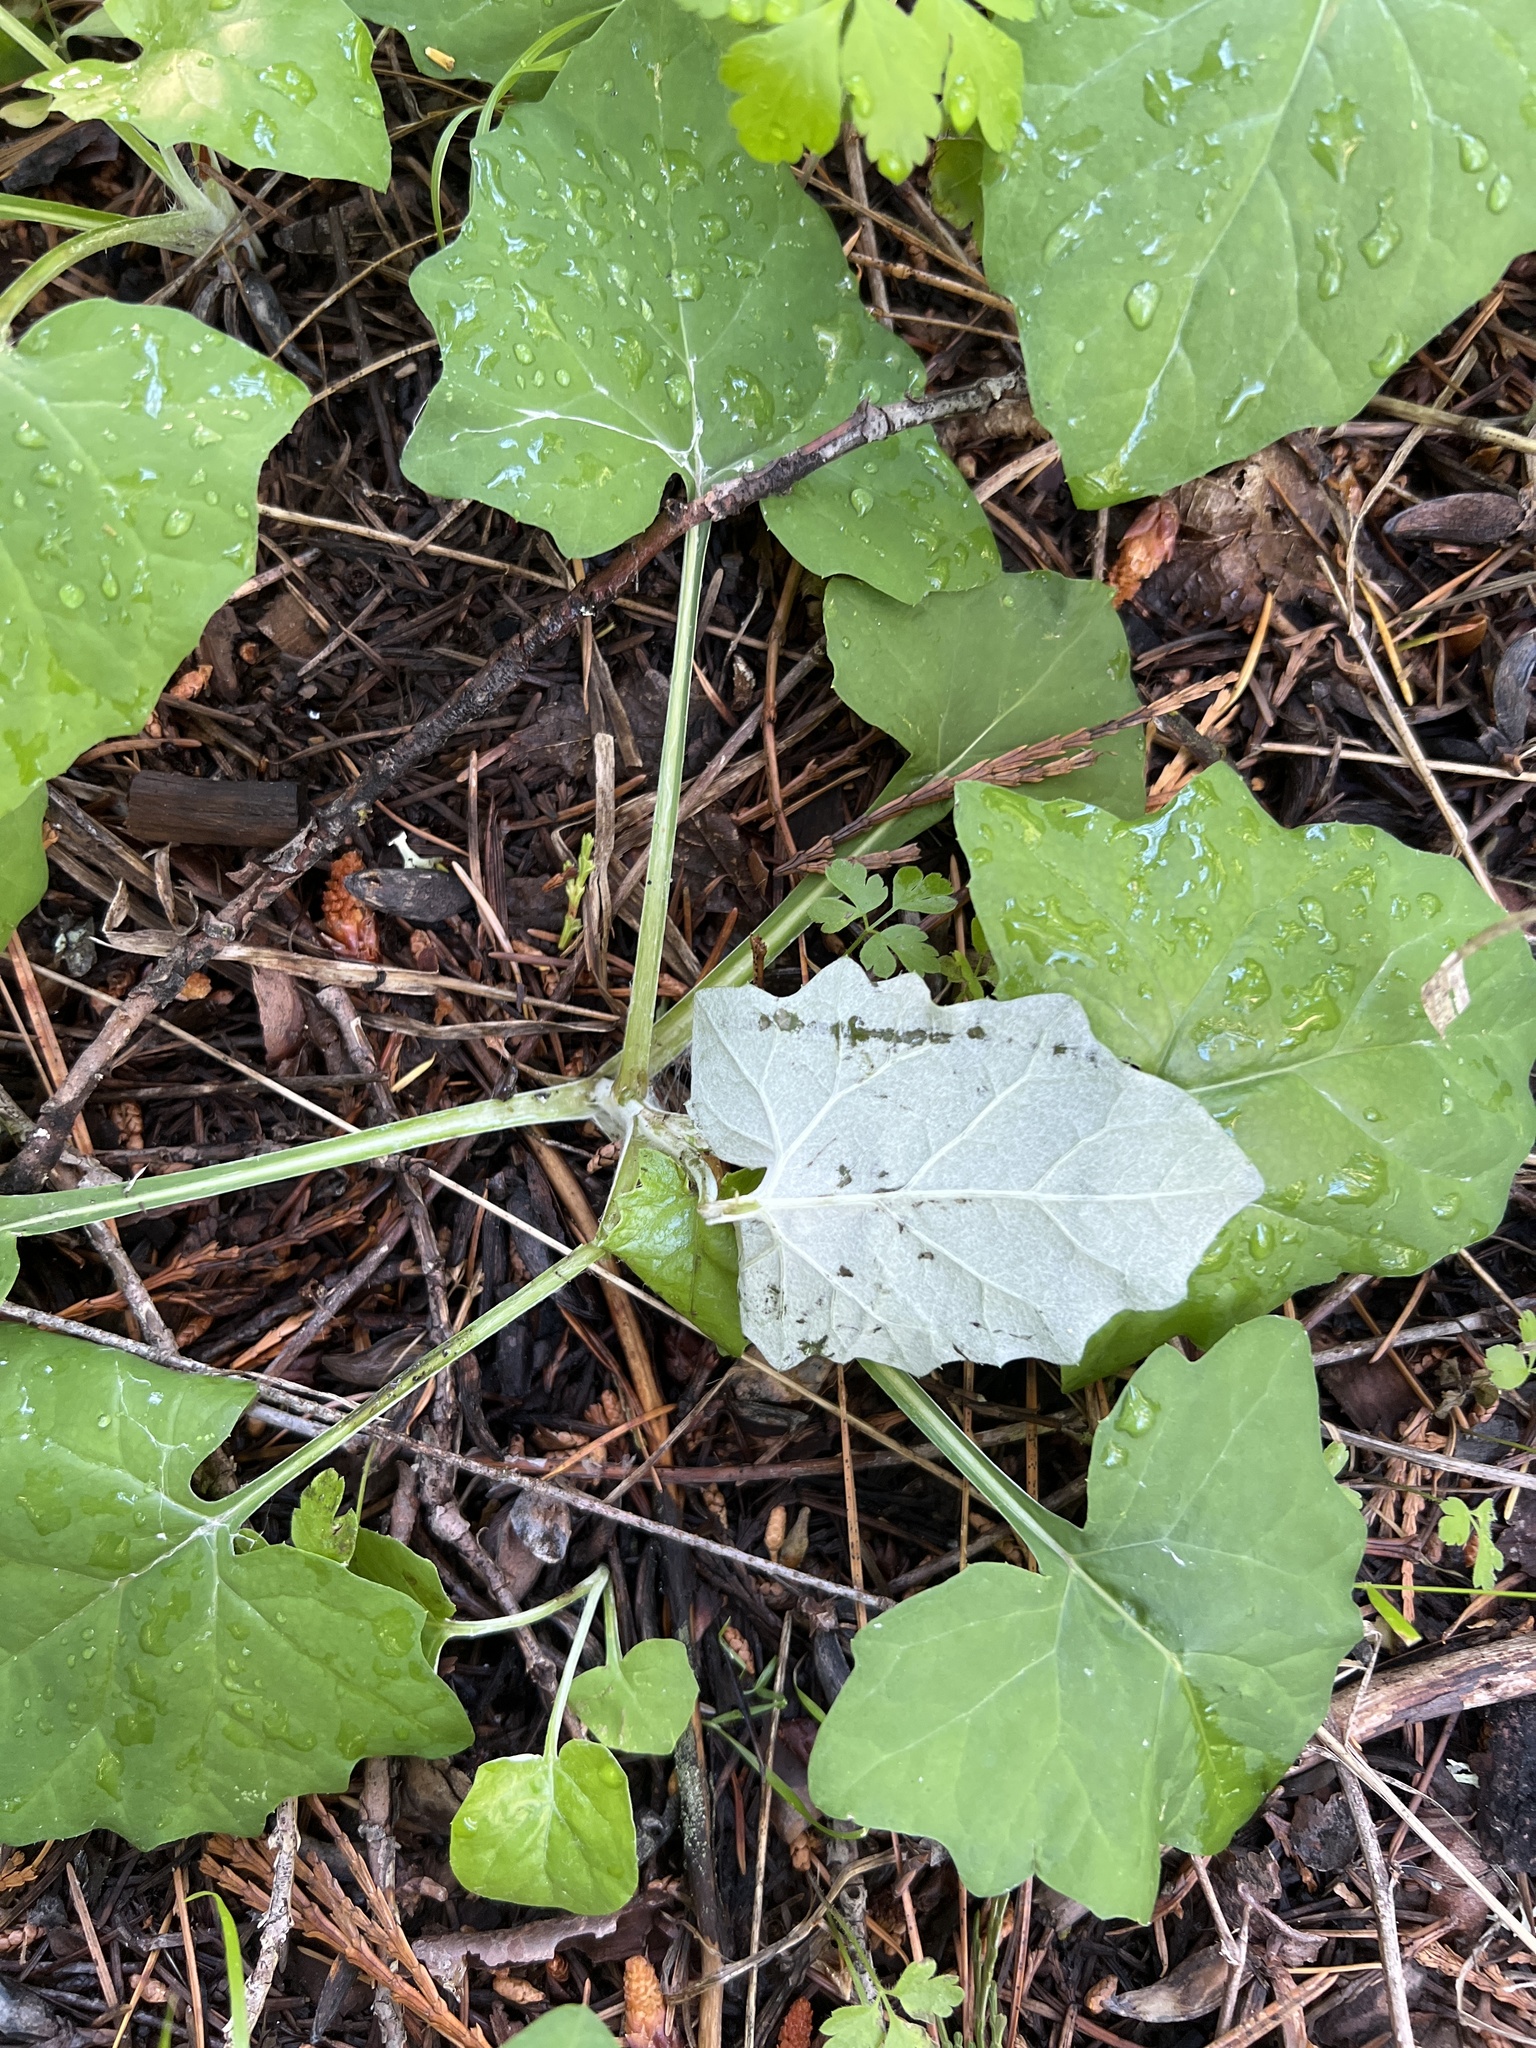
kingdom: Plantae
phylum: Tracheophyta
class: Magnoliopsida
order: Asterales
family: Asteraceae
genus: Adenocaulon
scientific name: Adenocaulon bicolor
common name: Trailplant
